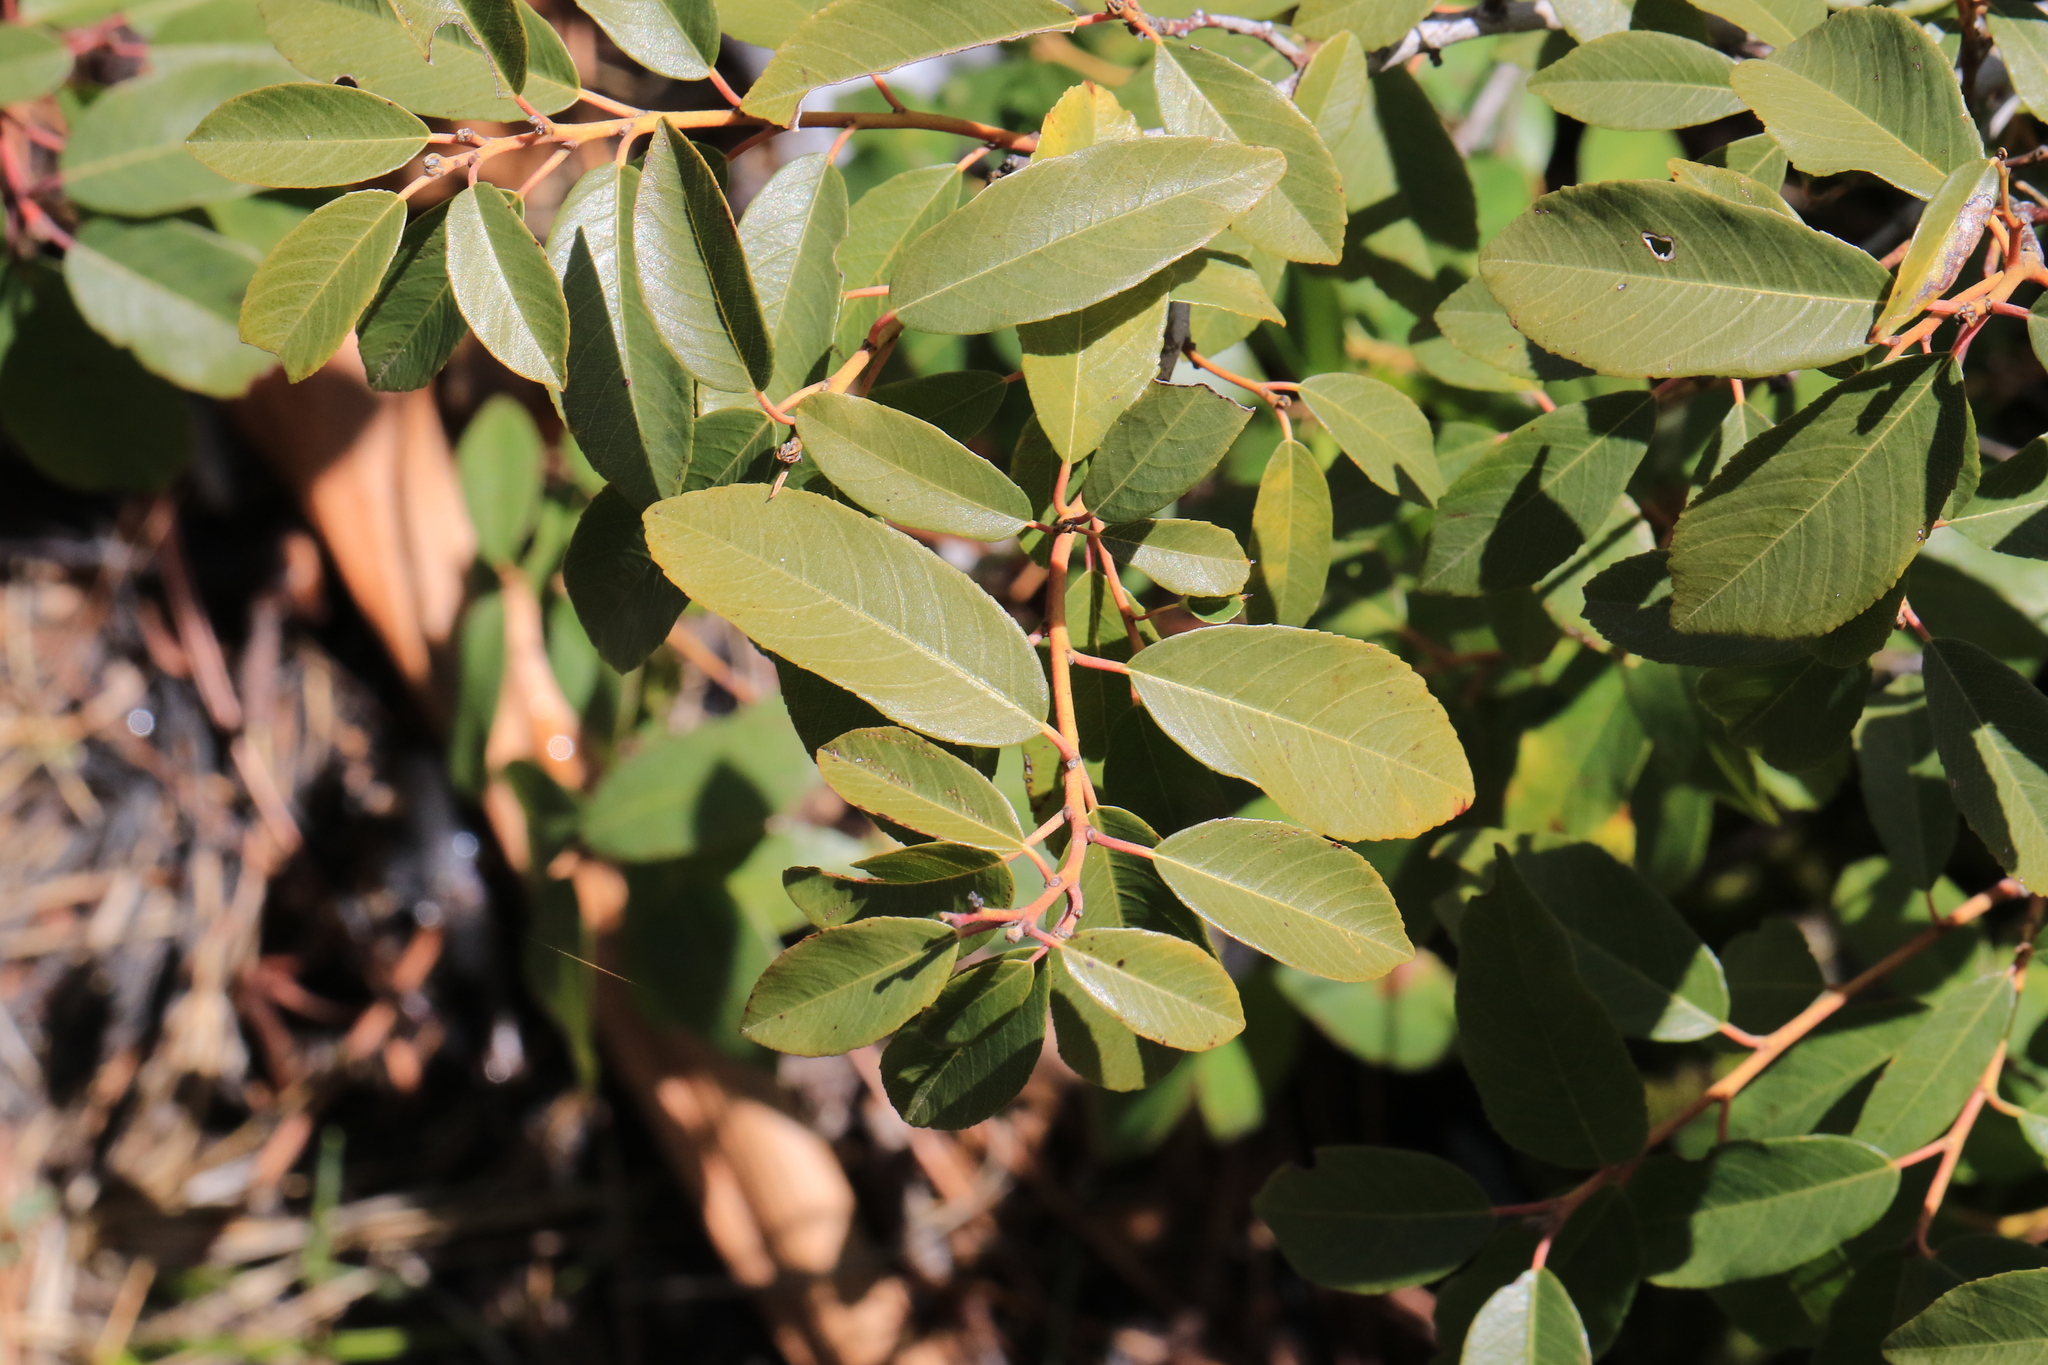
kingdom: Plantae
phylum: Tracheophyta
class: Magnoliopsida
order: Rosales
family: Rhamnaceae
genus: Frangula
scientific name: Frangula californica
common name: California buckthorn
